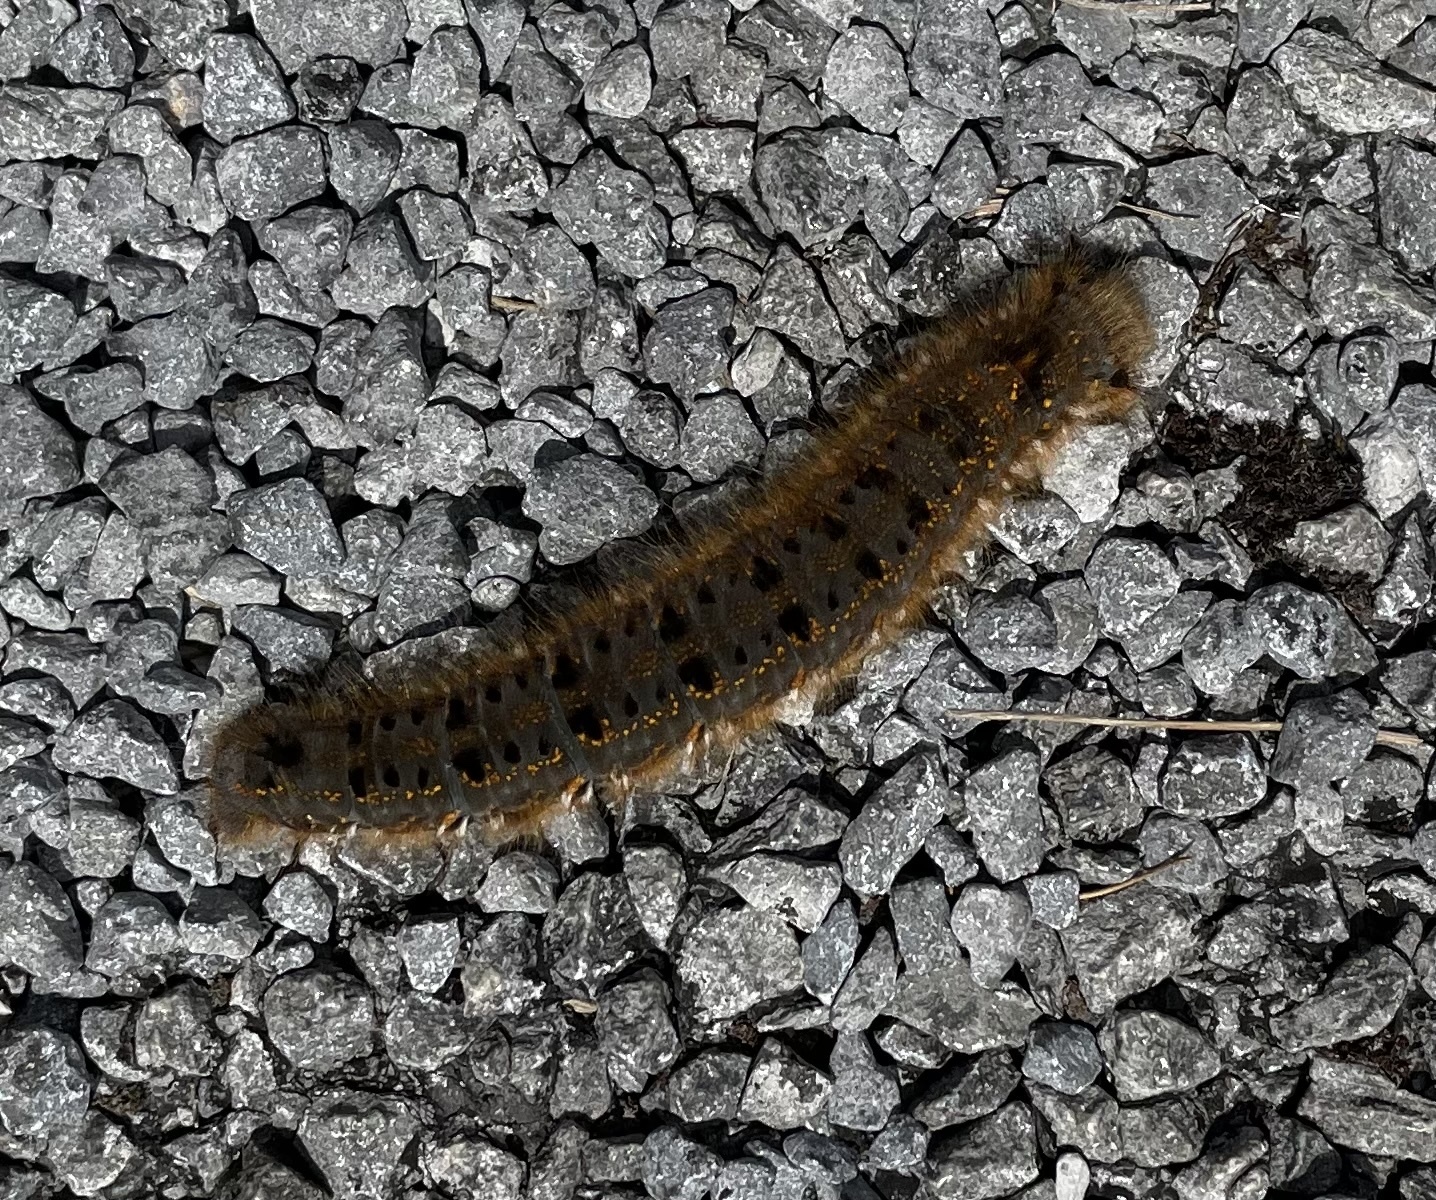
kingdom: Animalia
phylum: Arthropoda
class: Insecta
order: Lepidoptera
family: Lasiocampidae
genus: Euthrix
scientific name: Euthrix potatoria
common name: Drinker
